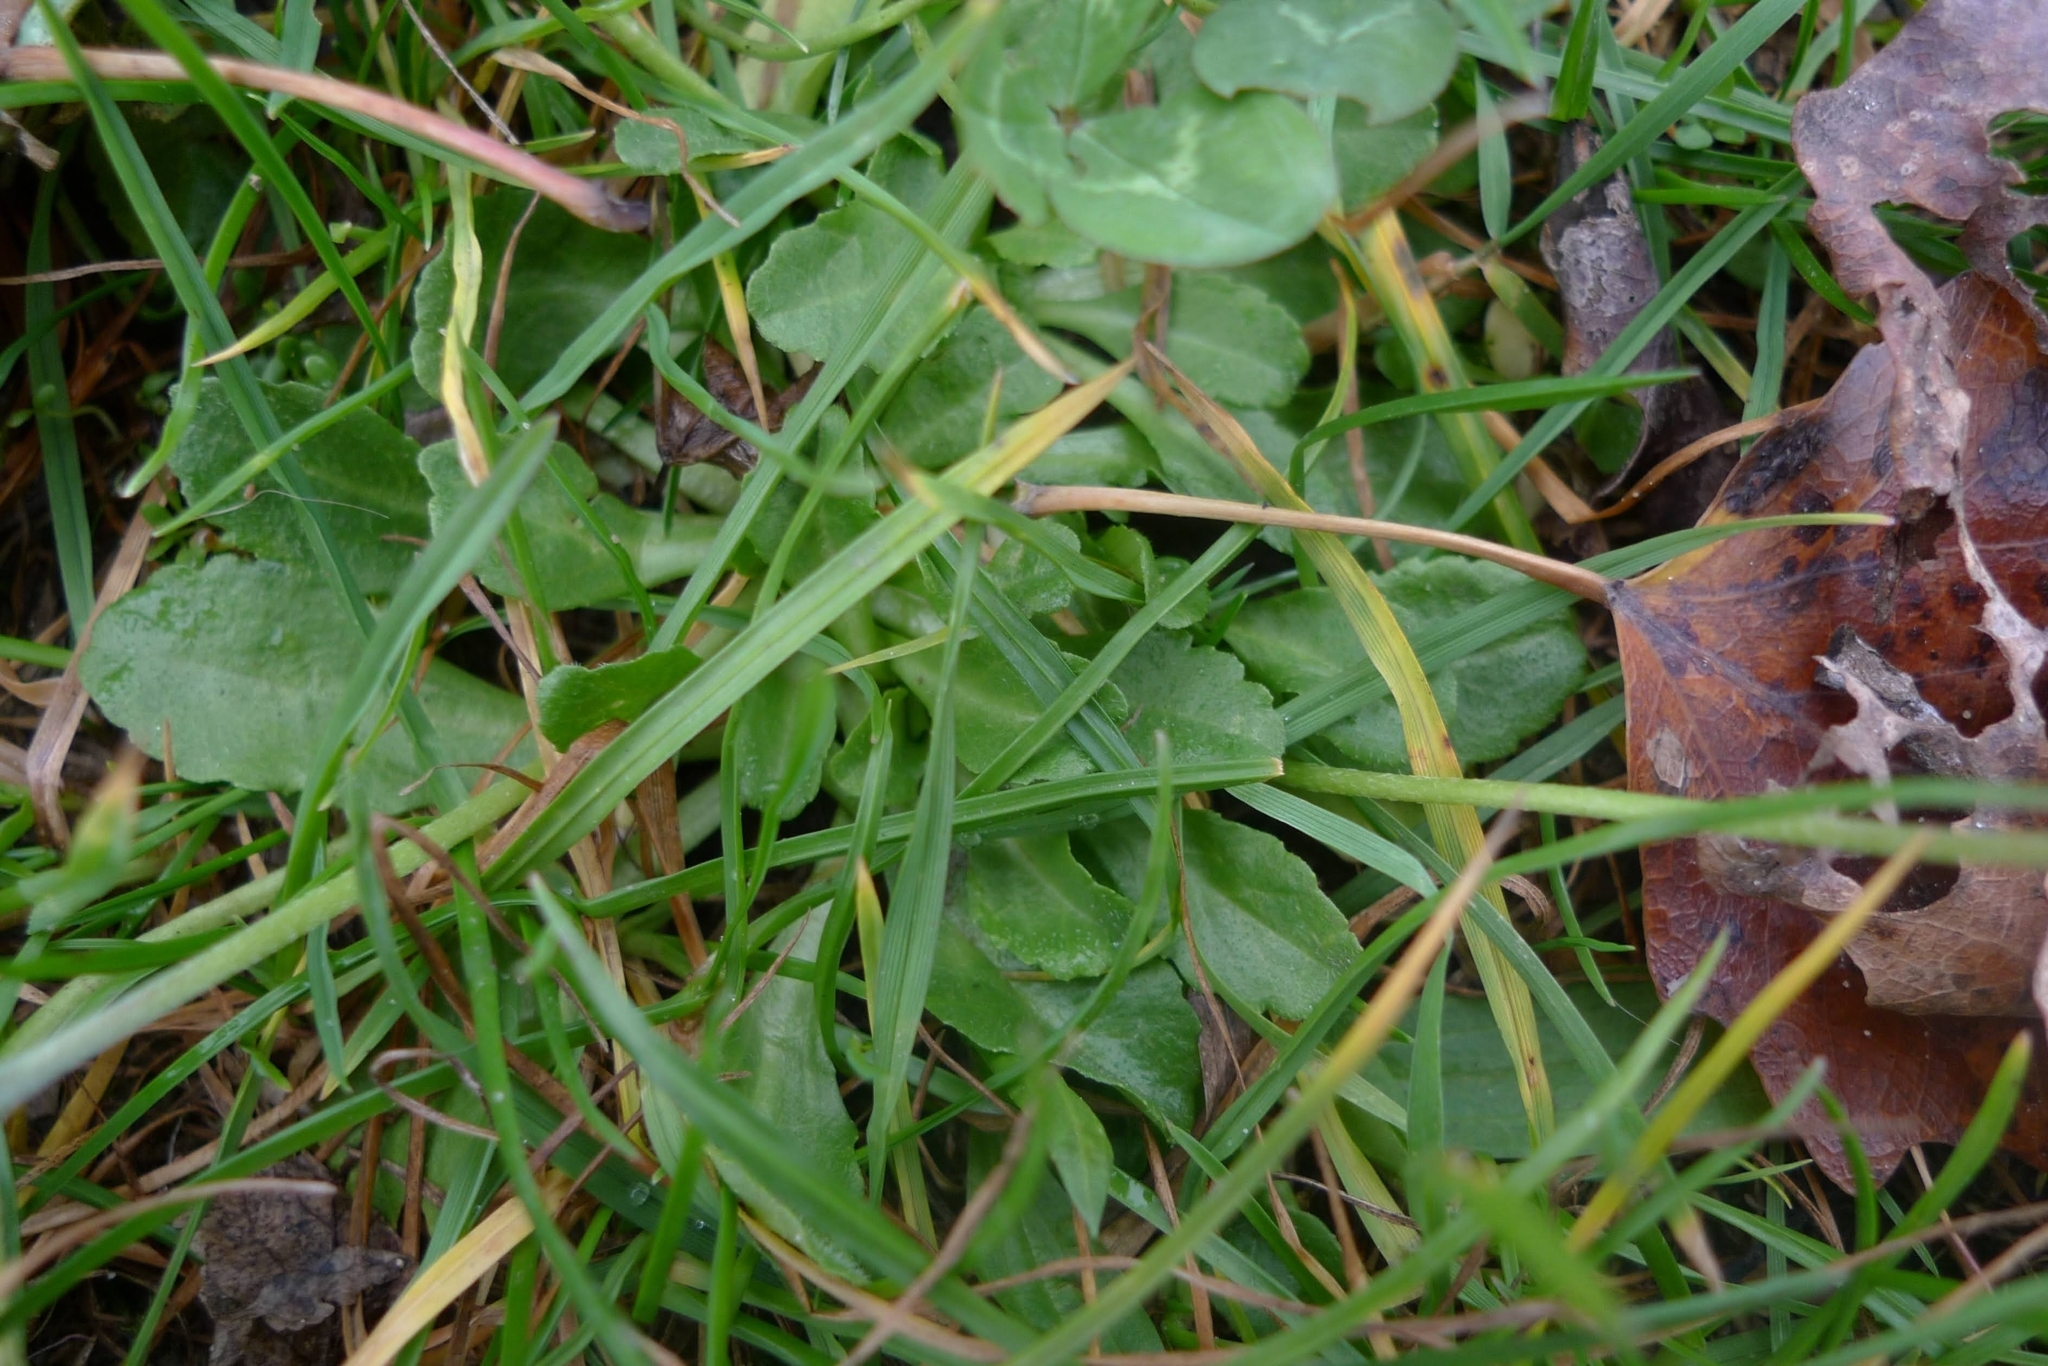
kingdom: Plantae
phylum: Tracheophyta
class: Magnoliopsida
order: Asterales
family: Asteraceae
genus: Bellis
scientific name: Bellis perennis
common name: Lawndaisy
